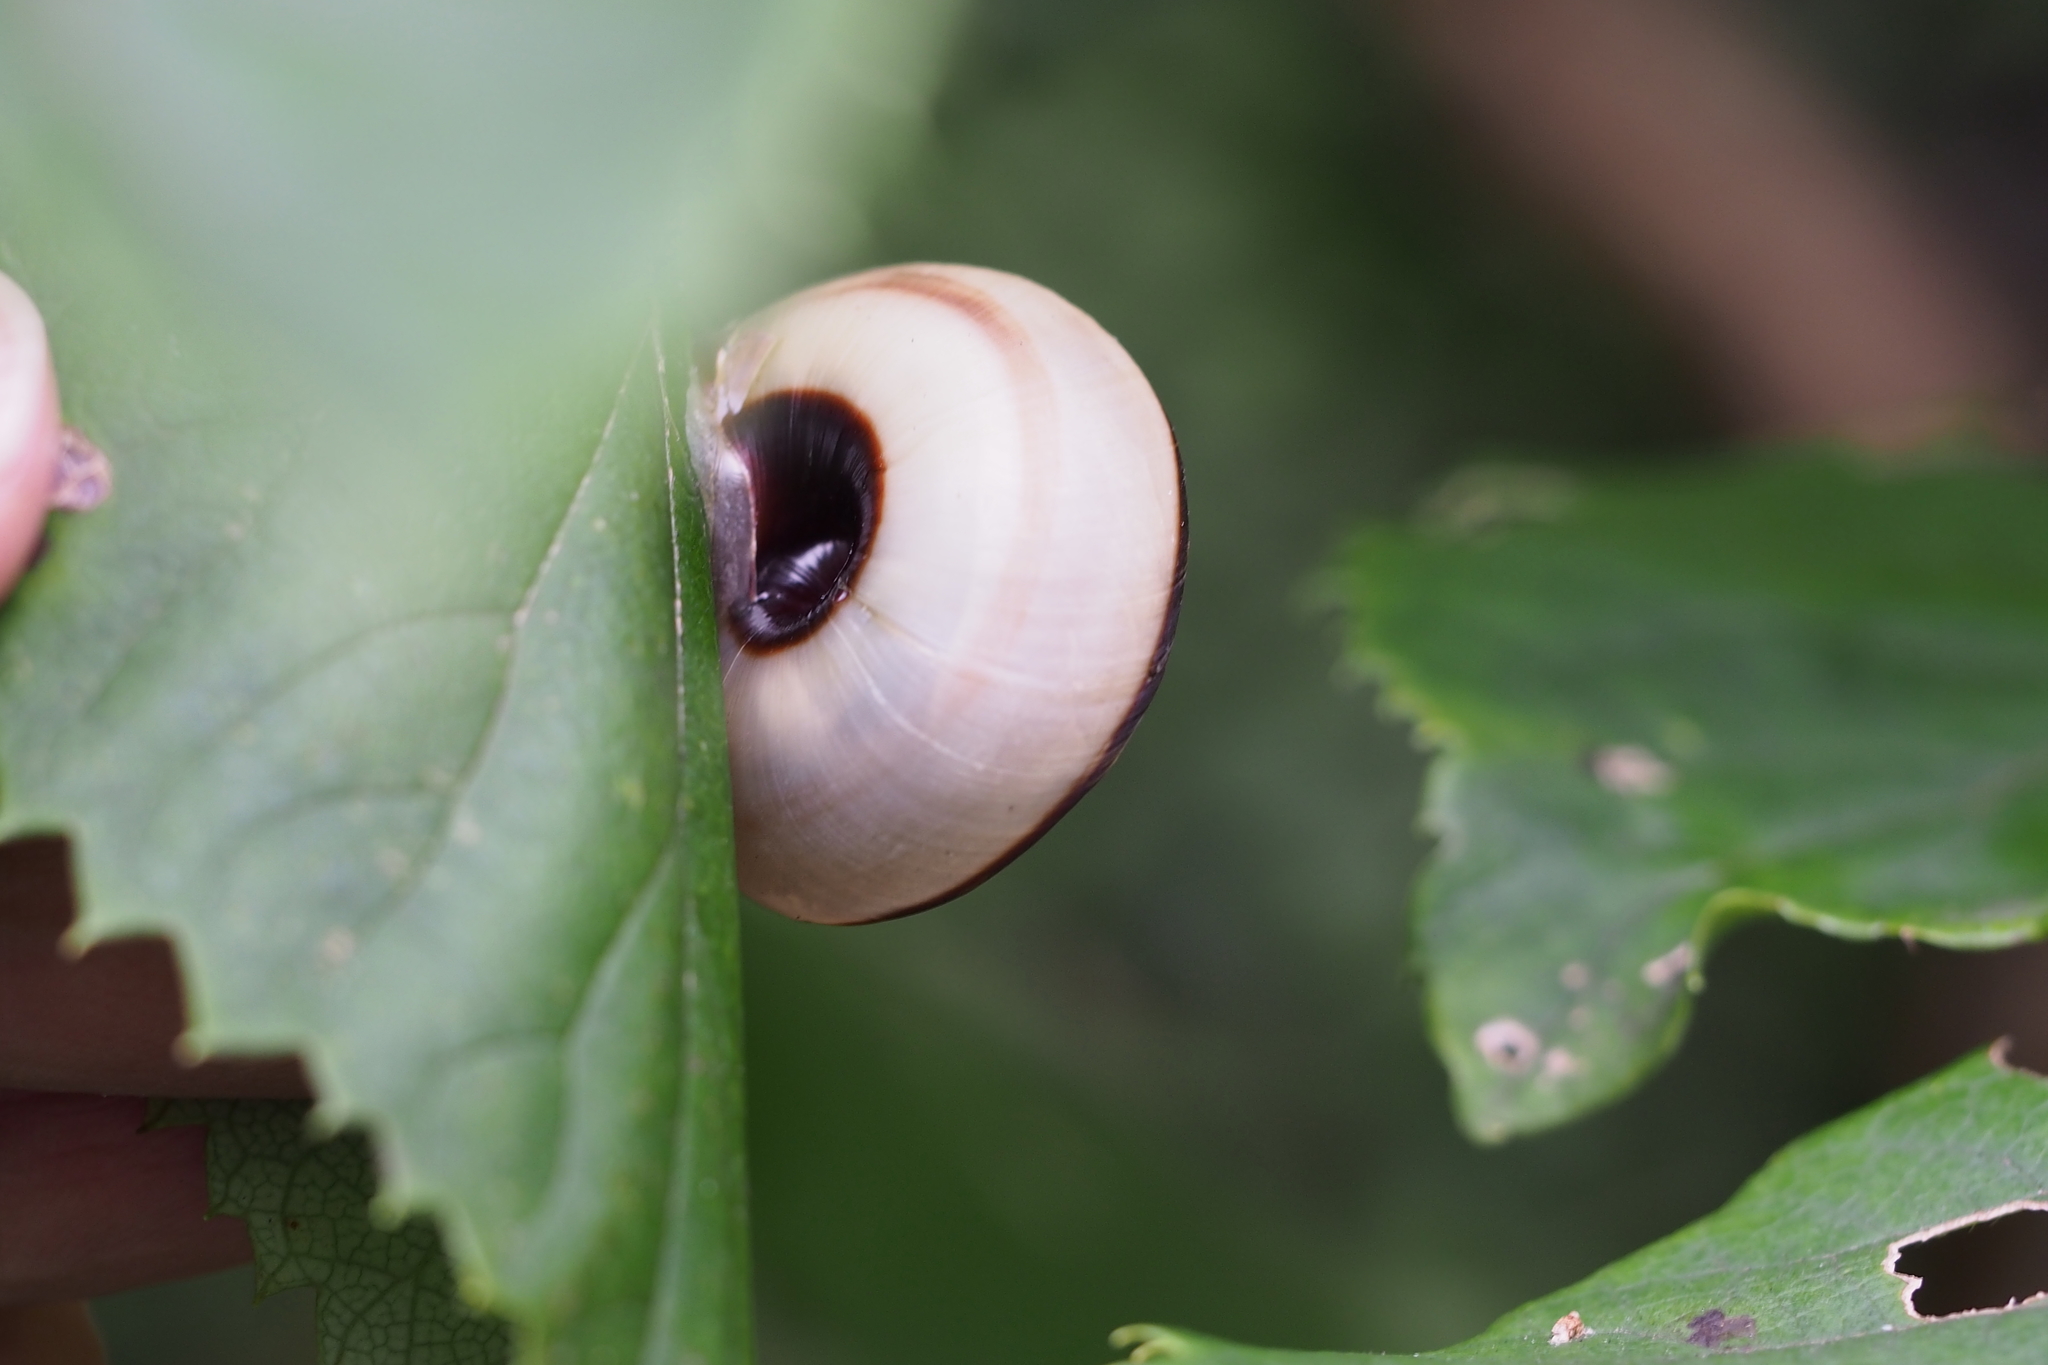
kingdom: Animalia
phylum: Mollusca
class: Gastropoda
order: Stylommatophora
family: Camaenidae
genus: Euhadra
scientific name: Euhadra peliomphala
